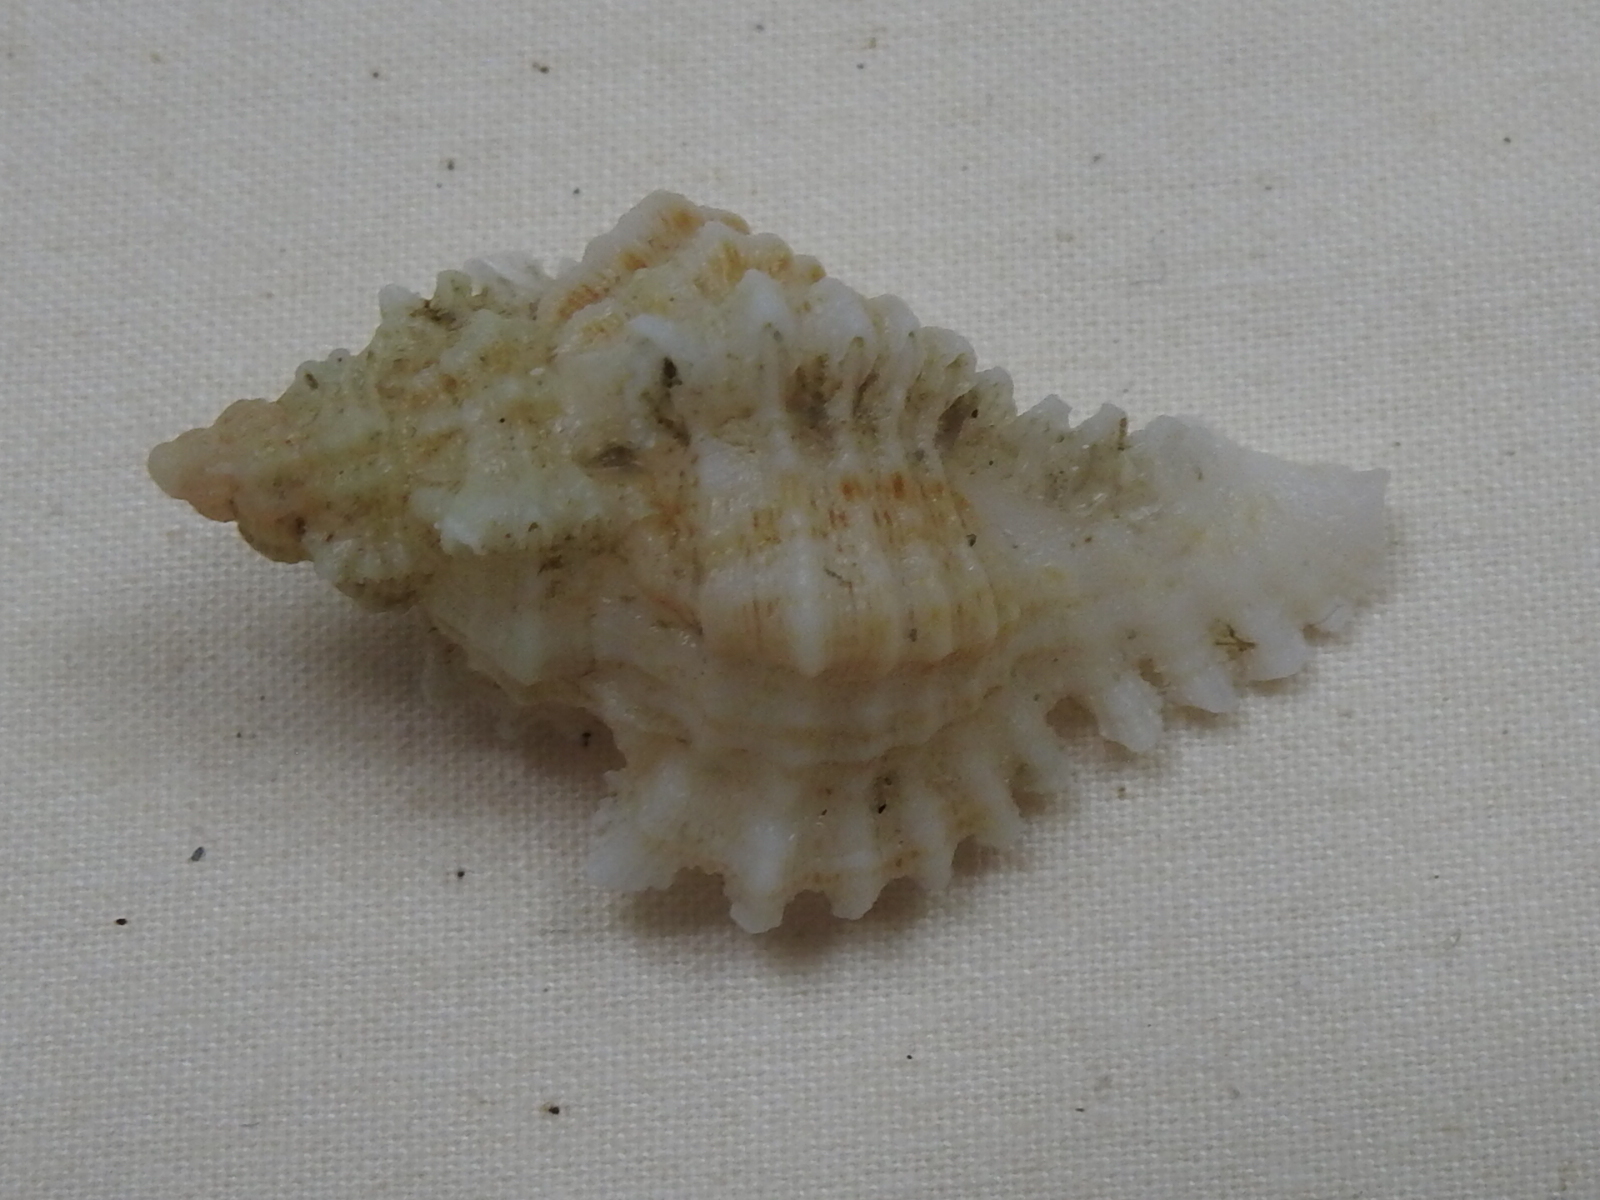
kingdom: Animalia
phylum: Mollusca
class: Gastropoda
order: Neogastropoda
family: Muricidae
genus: Chicoreus
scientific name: Chicoreus florifer
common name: Flowery lace murex
